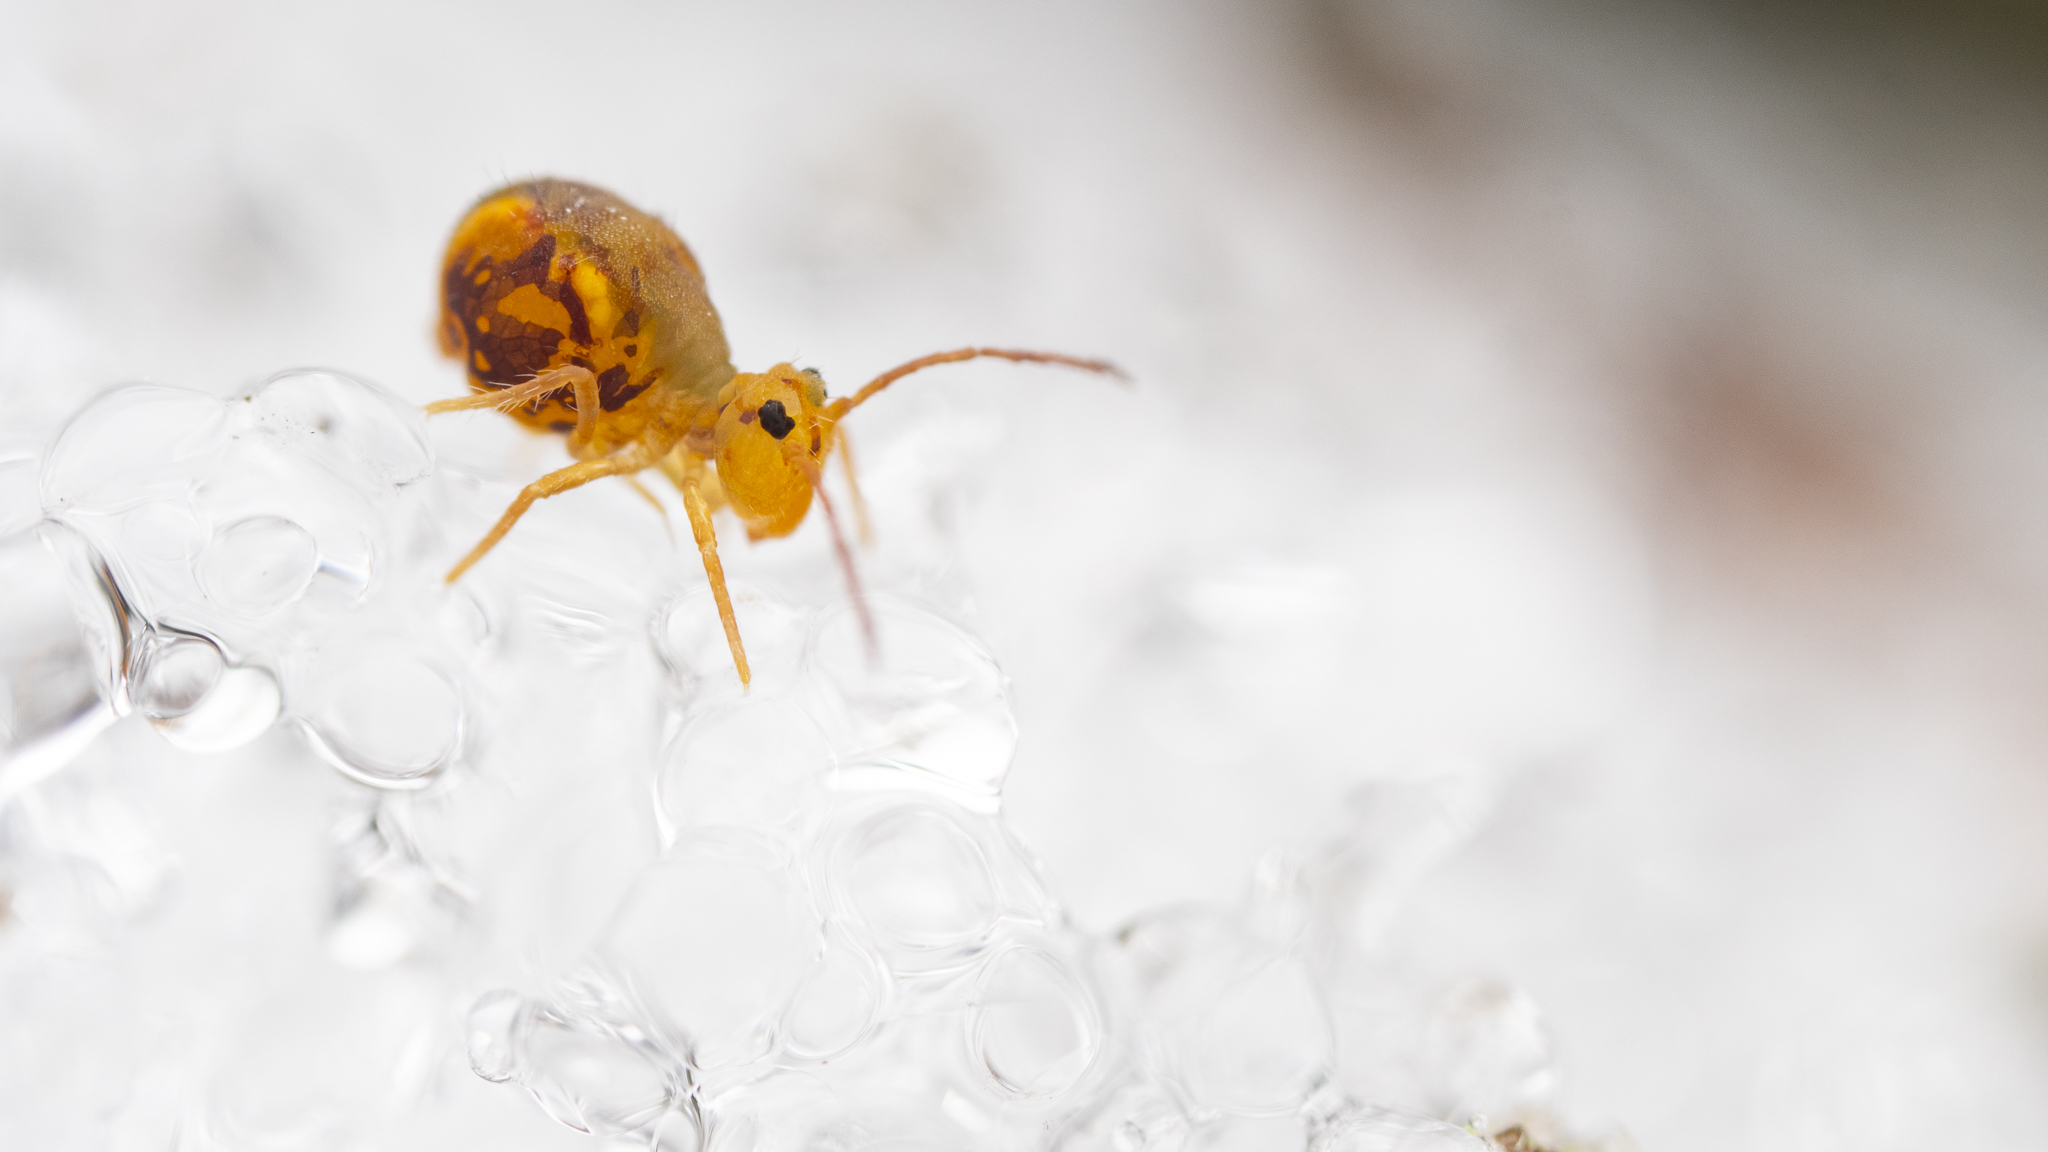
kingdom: Animalia
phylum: Arthropoda
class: Collembola
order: Symphypleona
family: Dicyrtomidae
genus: Dicyrtomina
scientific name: Dicyrtomina ornata
